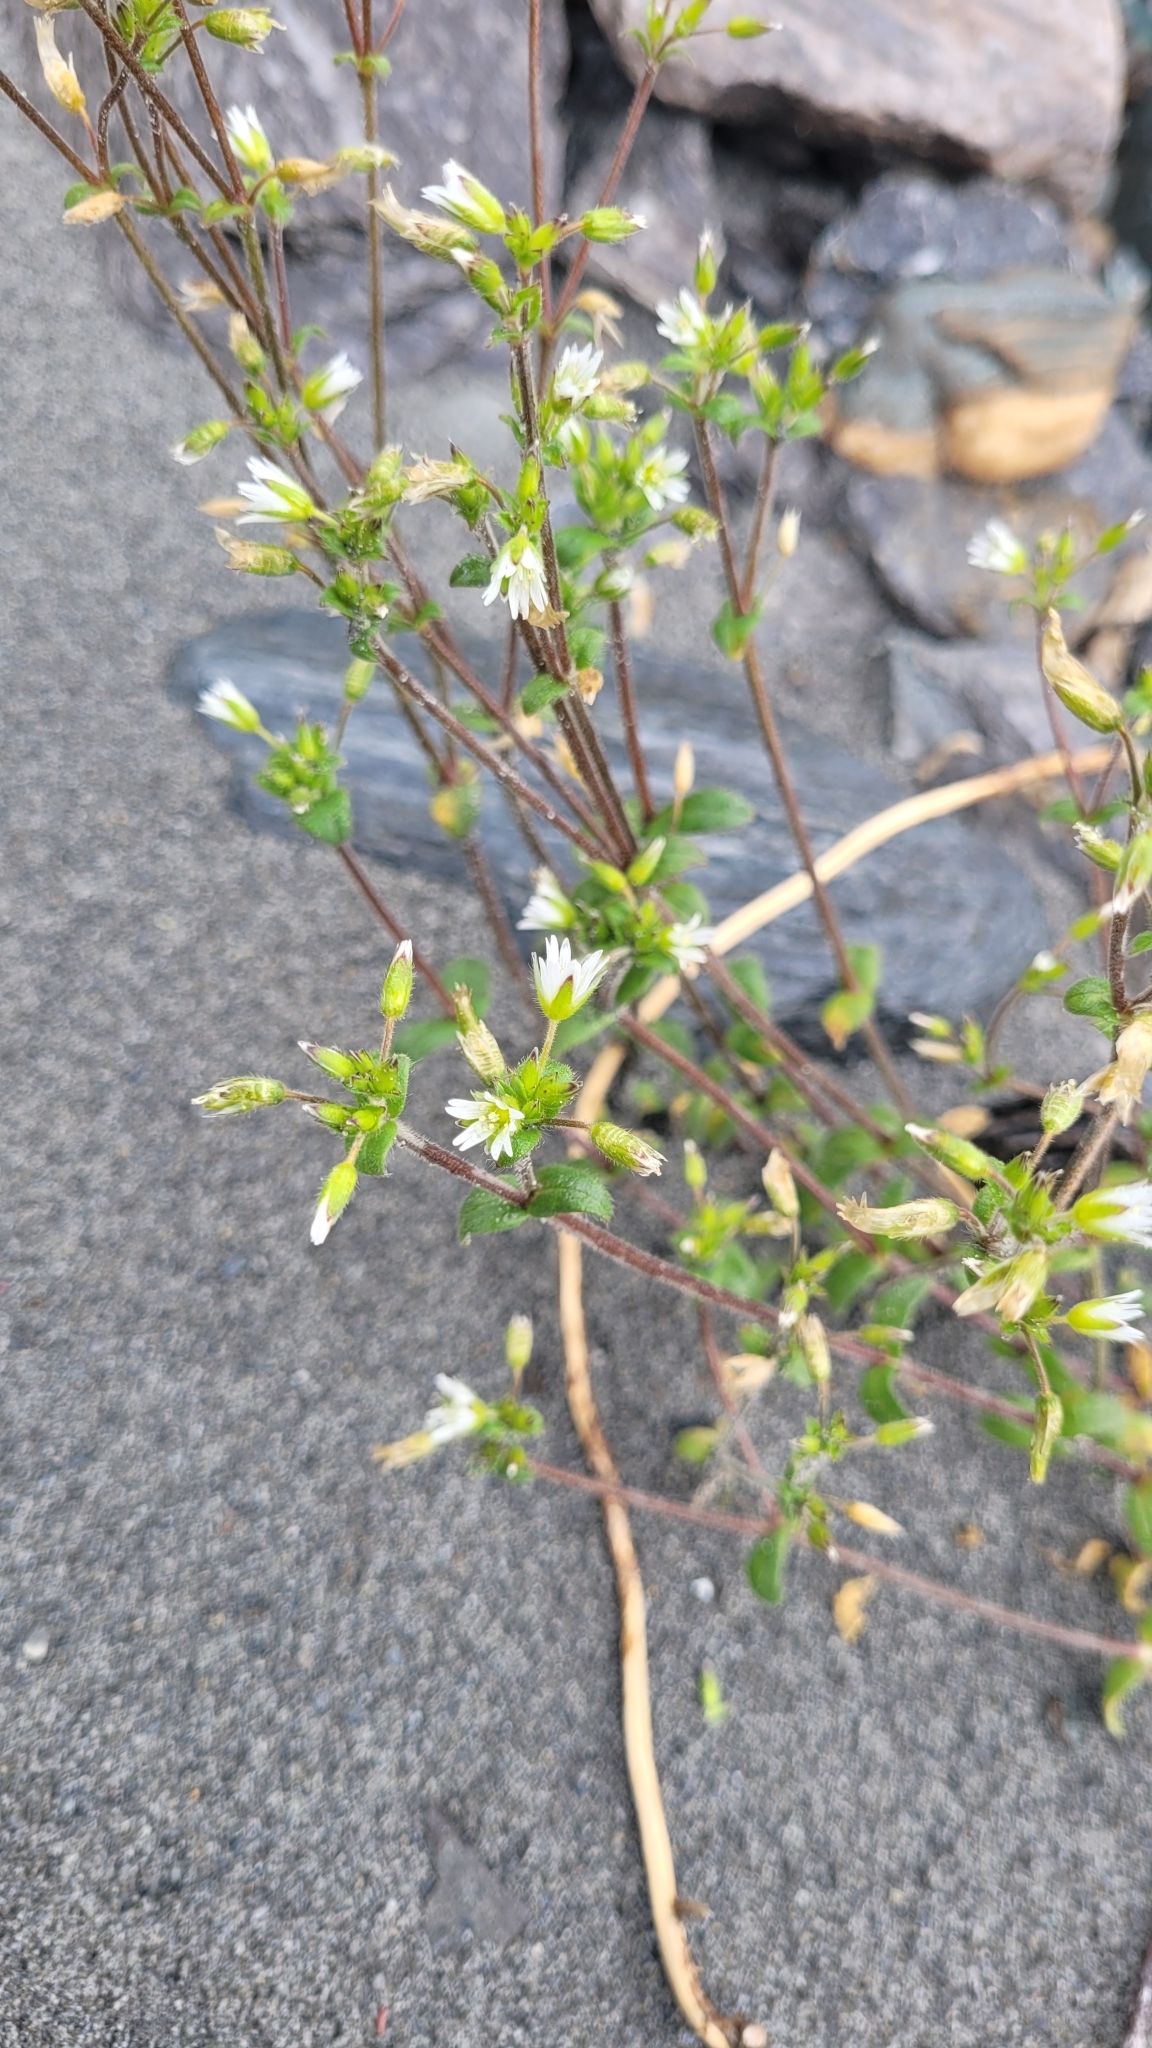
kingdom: Plantae
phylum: Tracheophyta
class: Magnoliopsida
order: Caryophyllales
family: Caryophyllaceae
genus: Cerastium
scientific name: Cerastium fontanum
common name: Common mouse-ear
